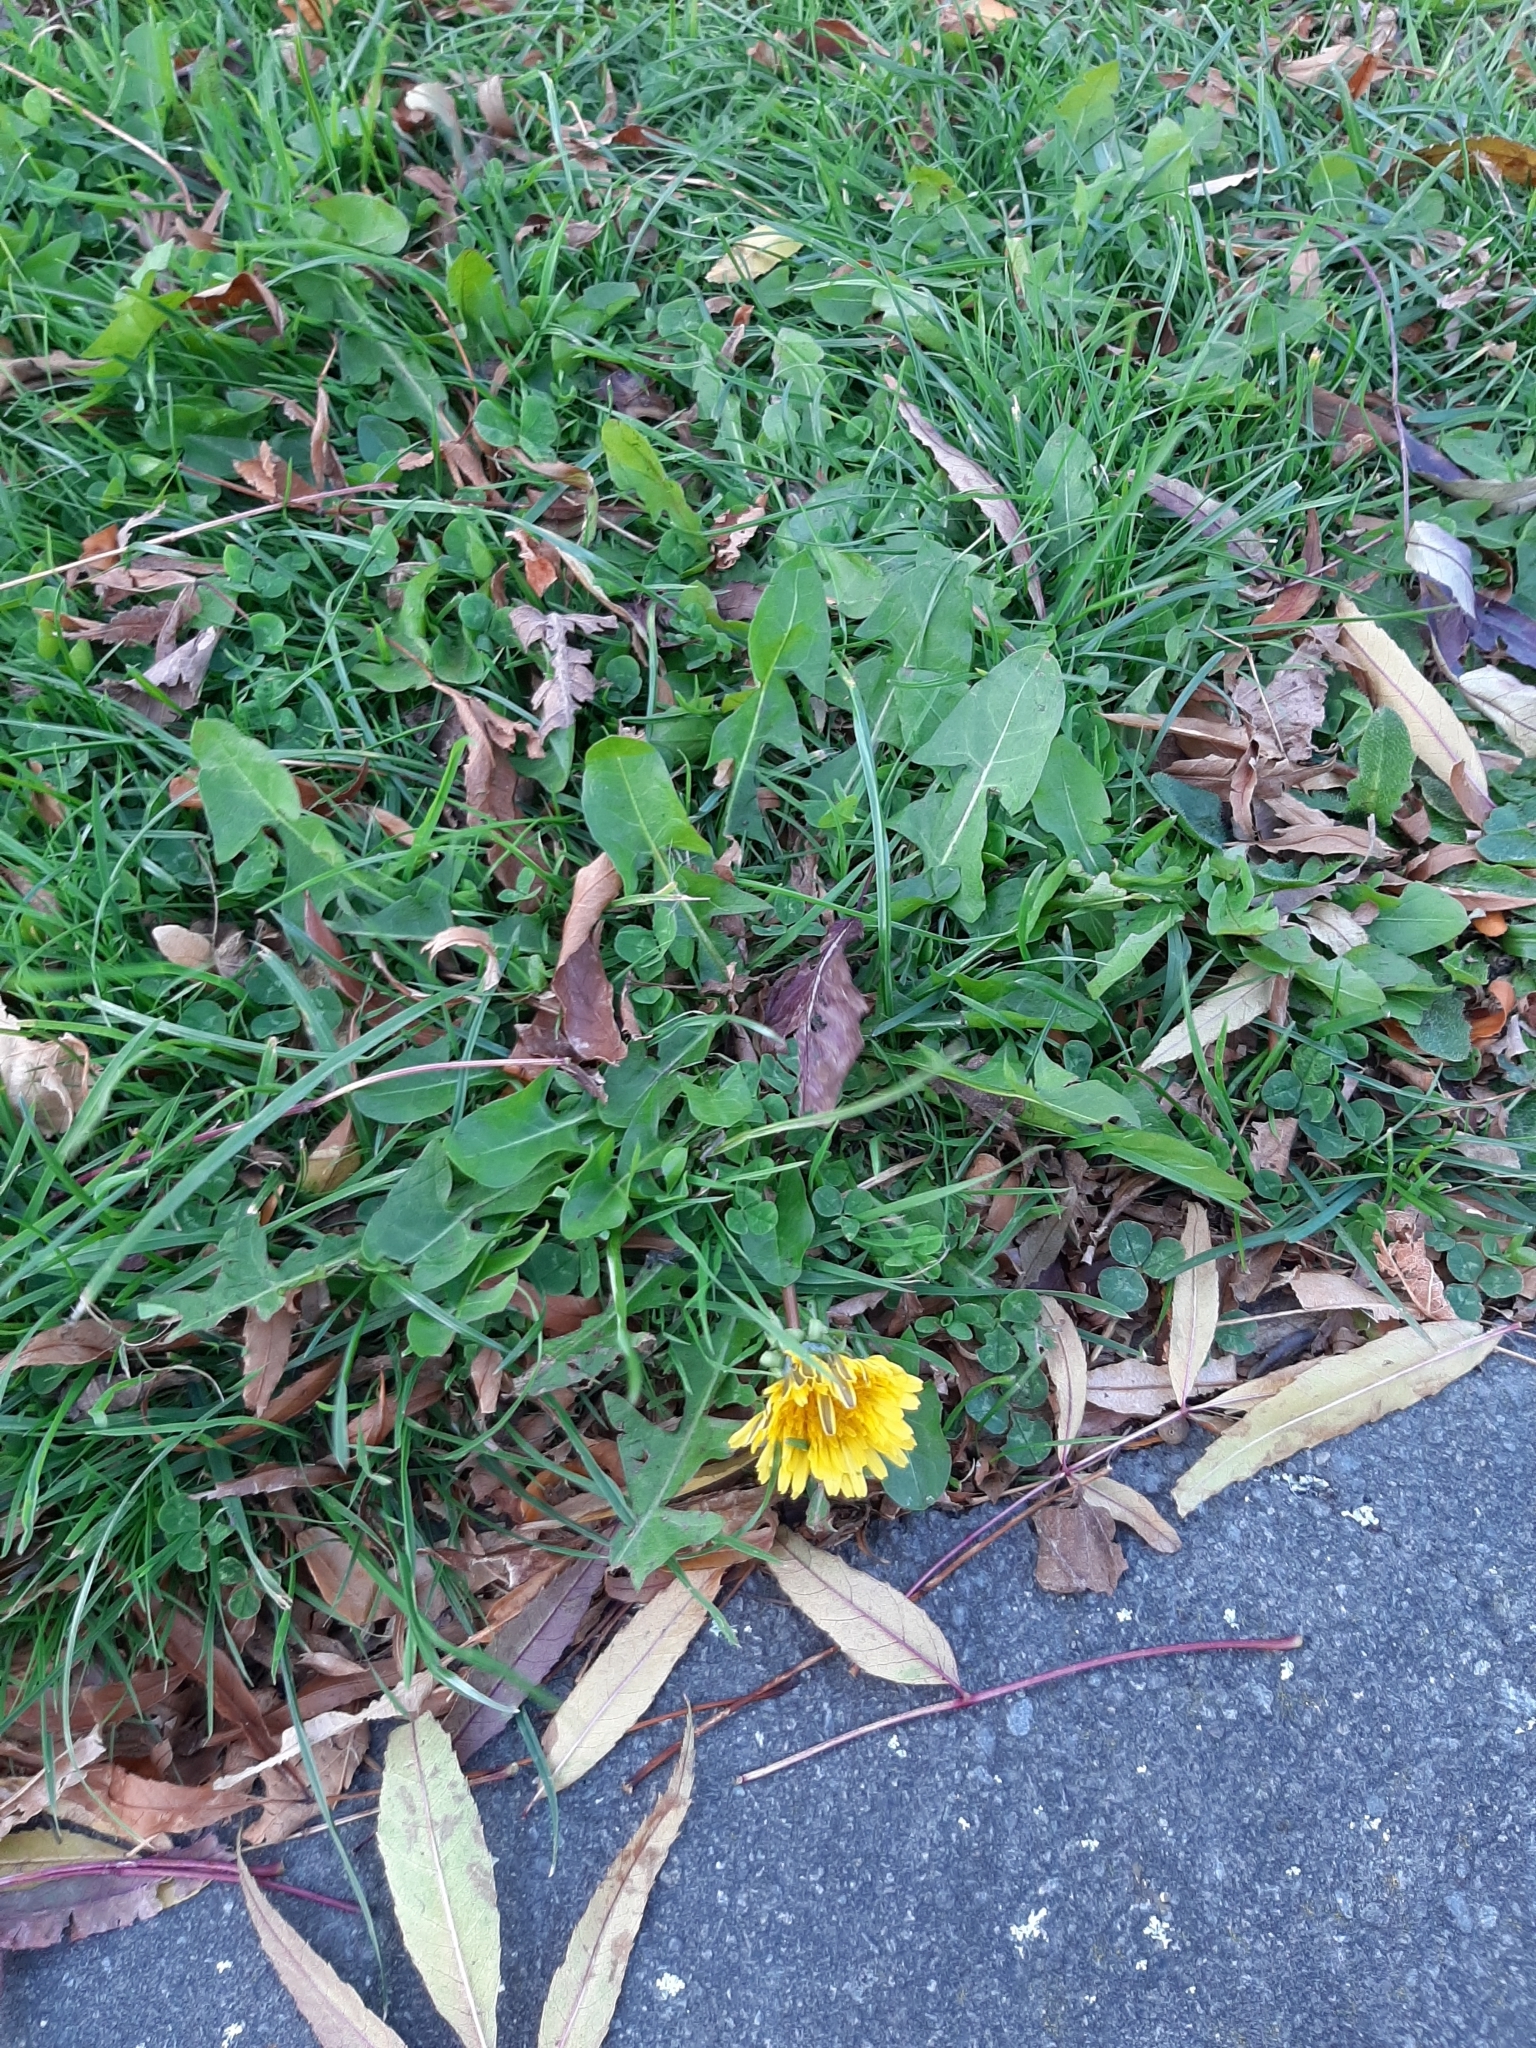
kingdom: Plantae
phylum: Tracheophyta
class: Magnoliopsida
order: Asterales
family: Asteraceae
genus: Taraxacum
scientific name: Taraxacum officinale
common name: Common dandelion
